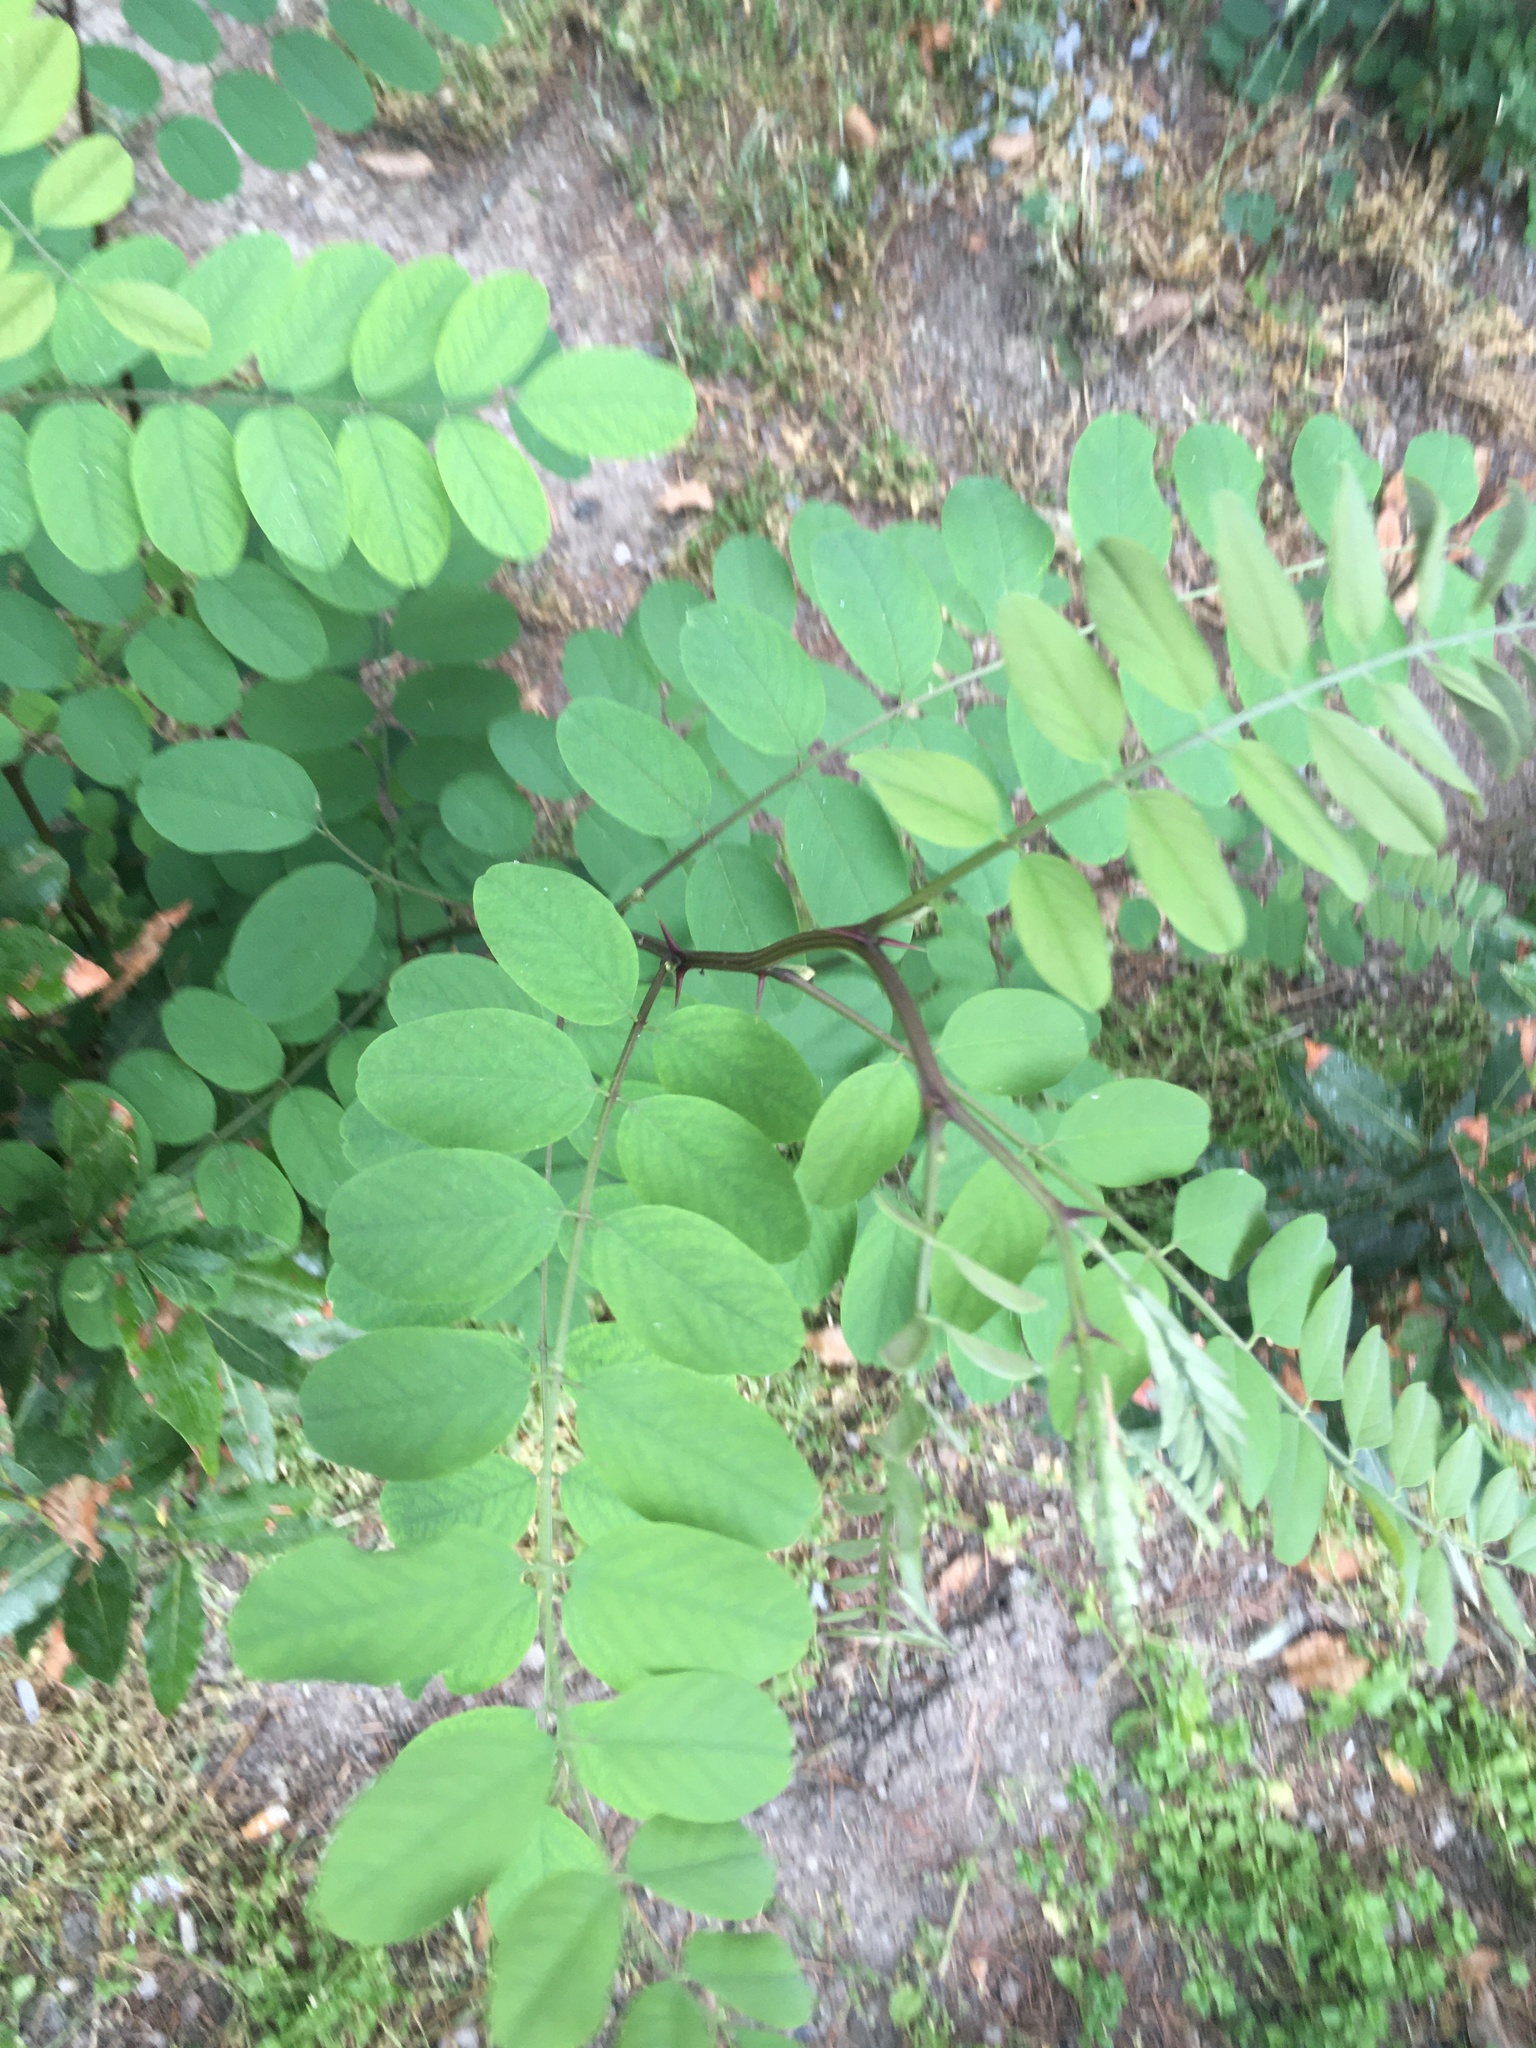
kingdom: Plantae
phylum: Tracheophyta
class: Magnoliopsida
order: Fabales
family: Fabaceae
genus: Robinia
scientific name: Robinia pseudoacacia
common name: Black locust
